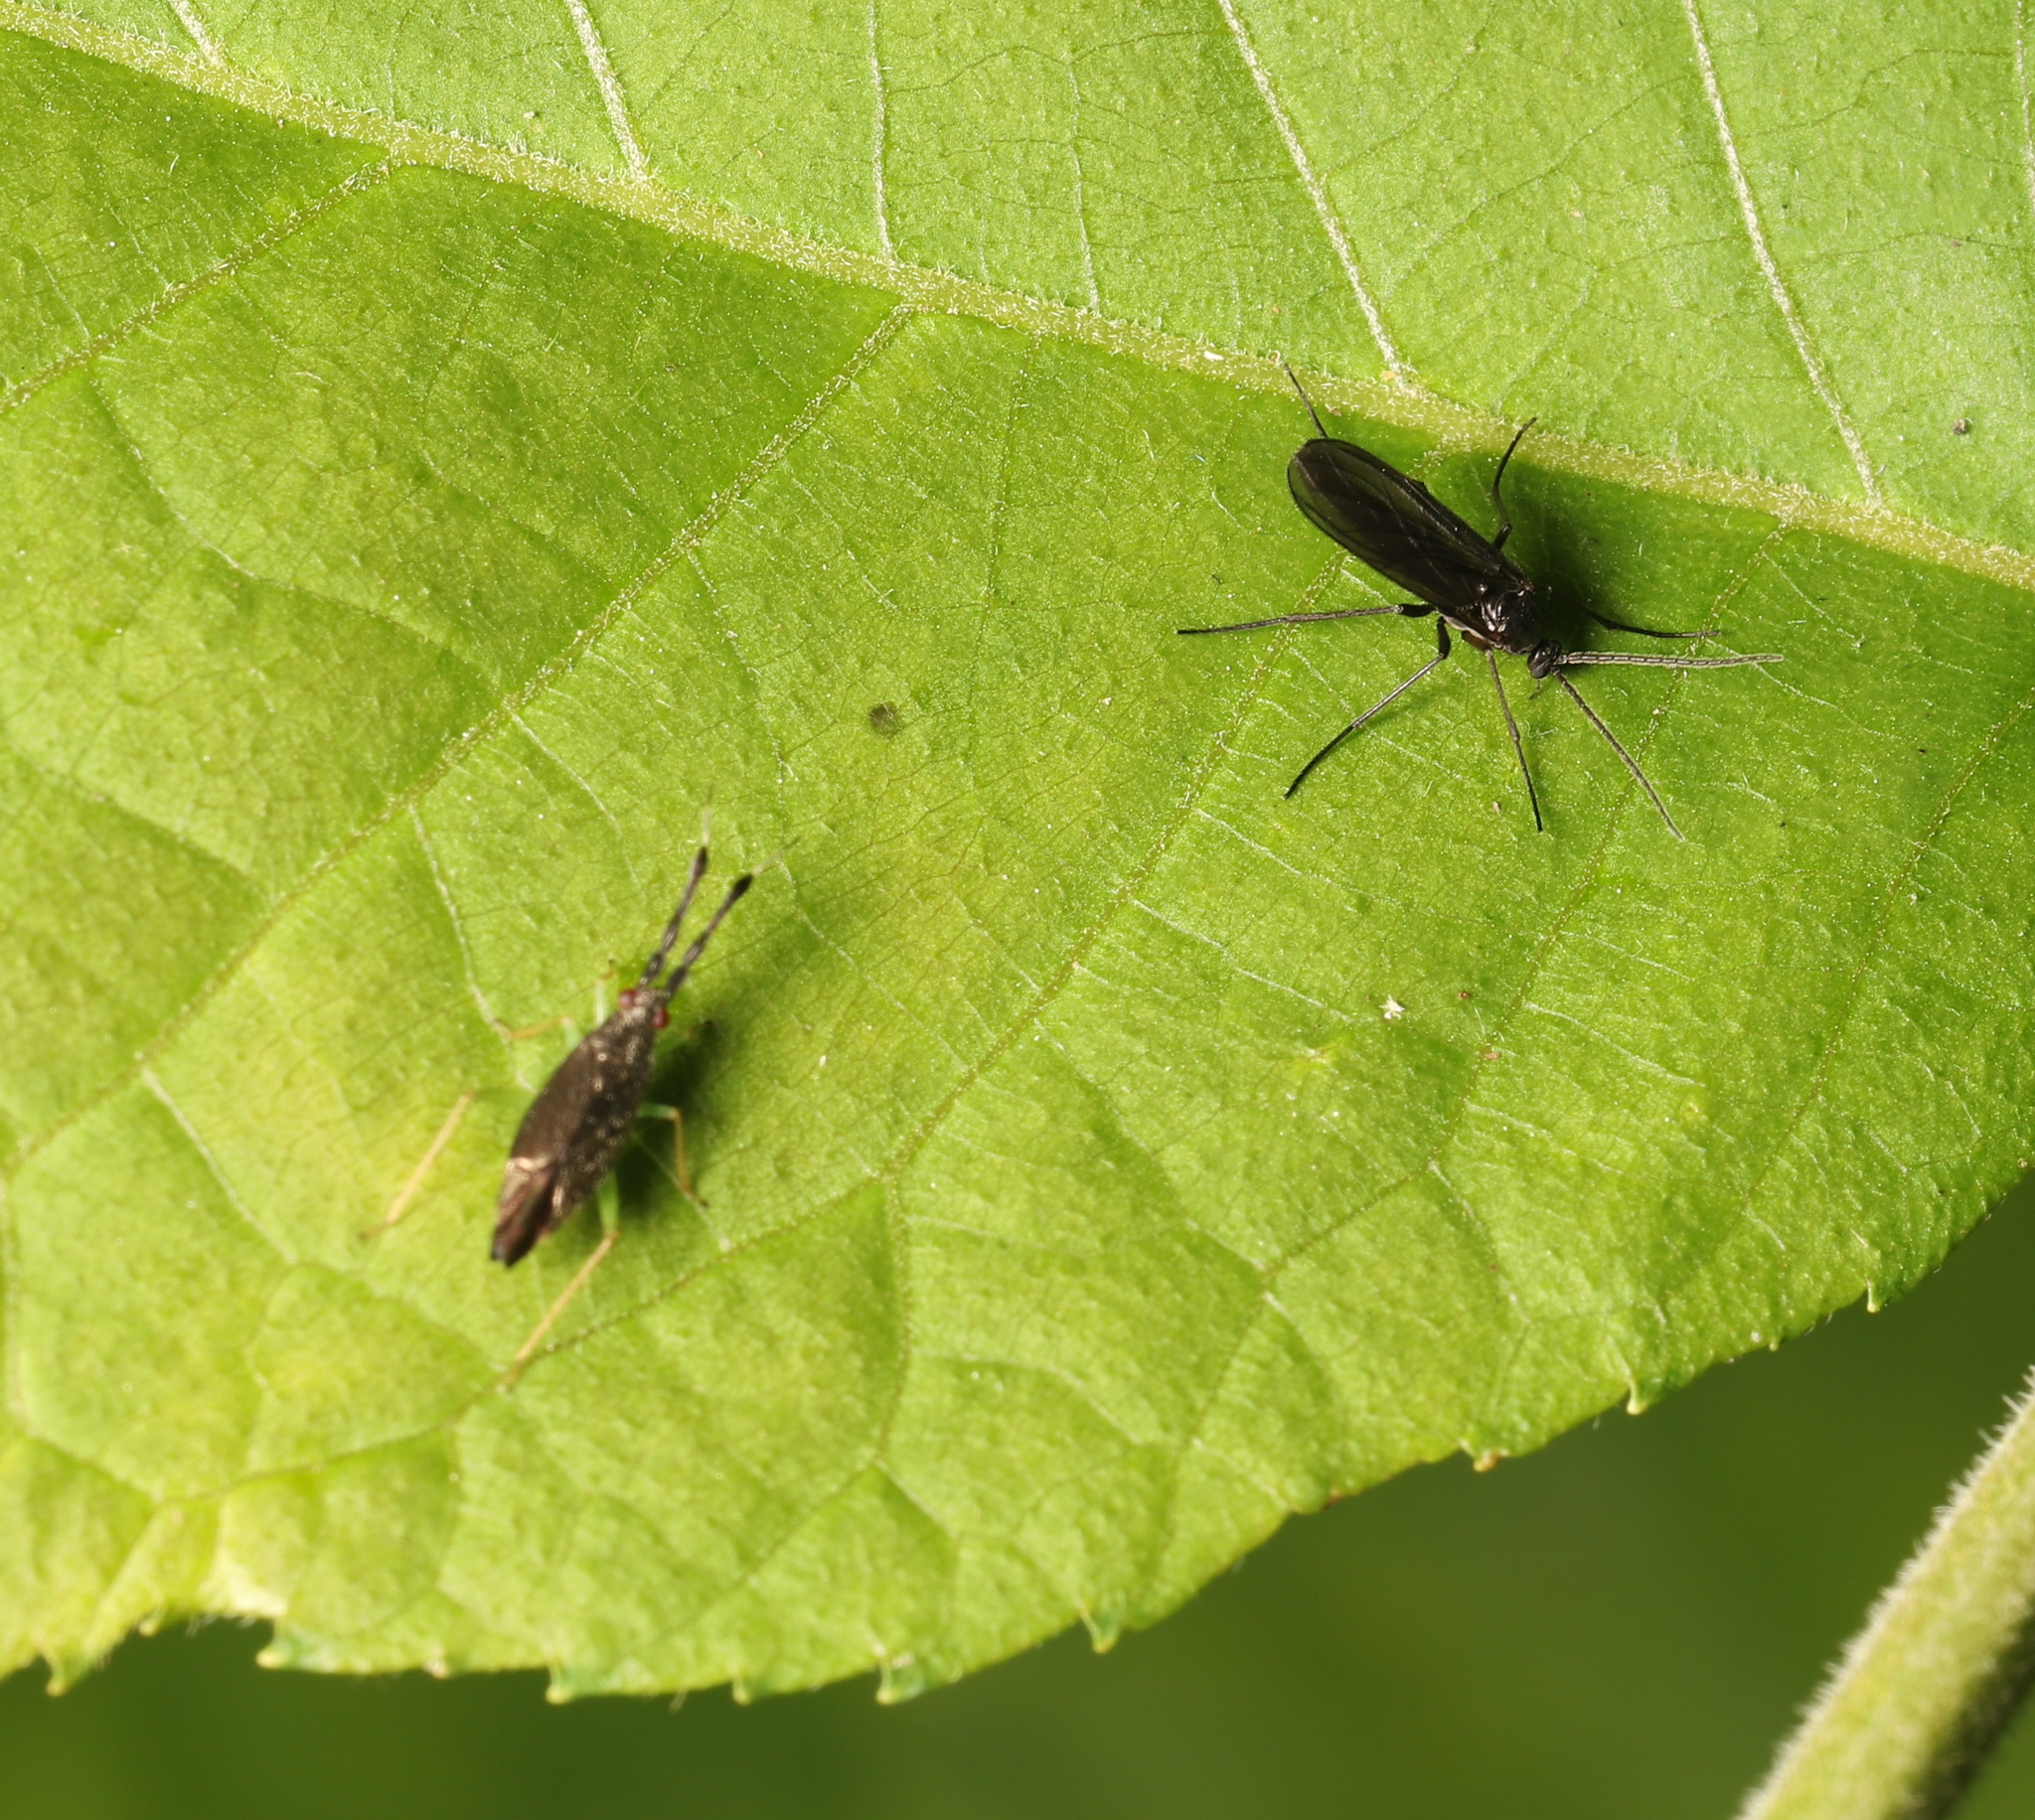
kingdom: Animalia
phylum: Arthropoda
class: Insecta
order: Hemiptera
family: Miridae
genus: Heterotoma
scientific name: Heterotoma planicornis
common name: Plant bug
